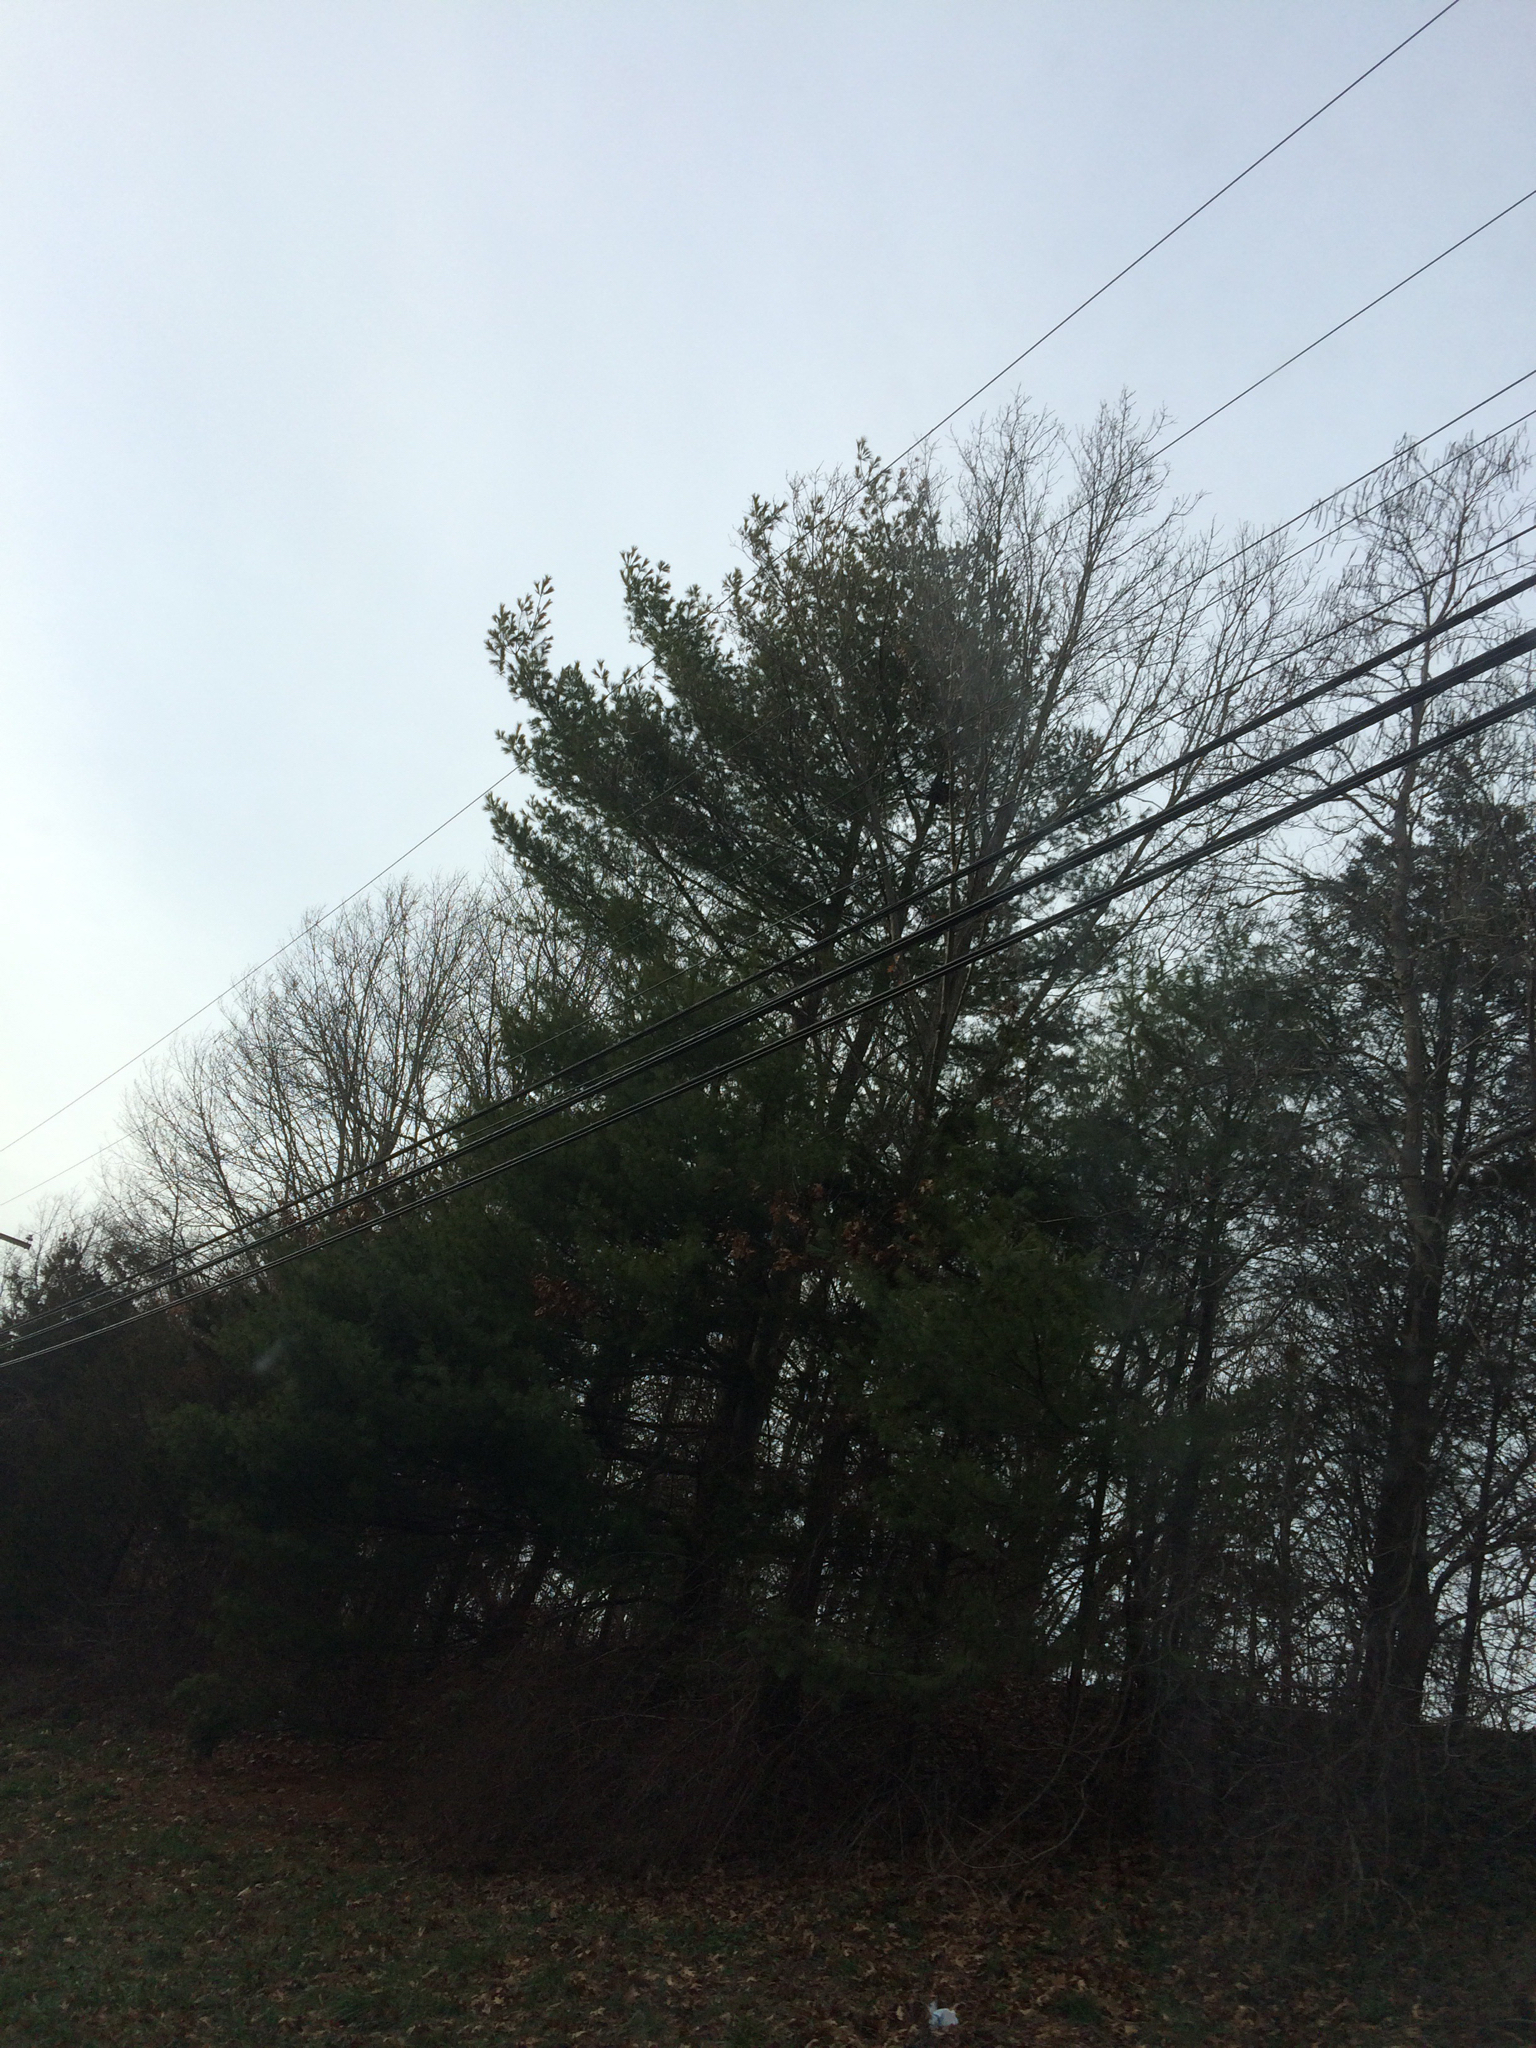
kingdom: Plantae
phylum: Tracheophyta
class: Pinopsida
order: Pinales
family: Pinaceae
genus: Pinus
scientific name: Pinus strobus
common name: Weymouth pine
